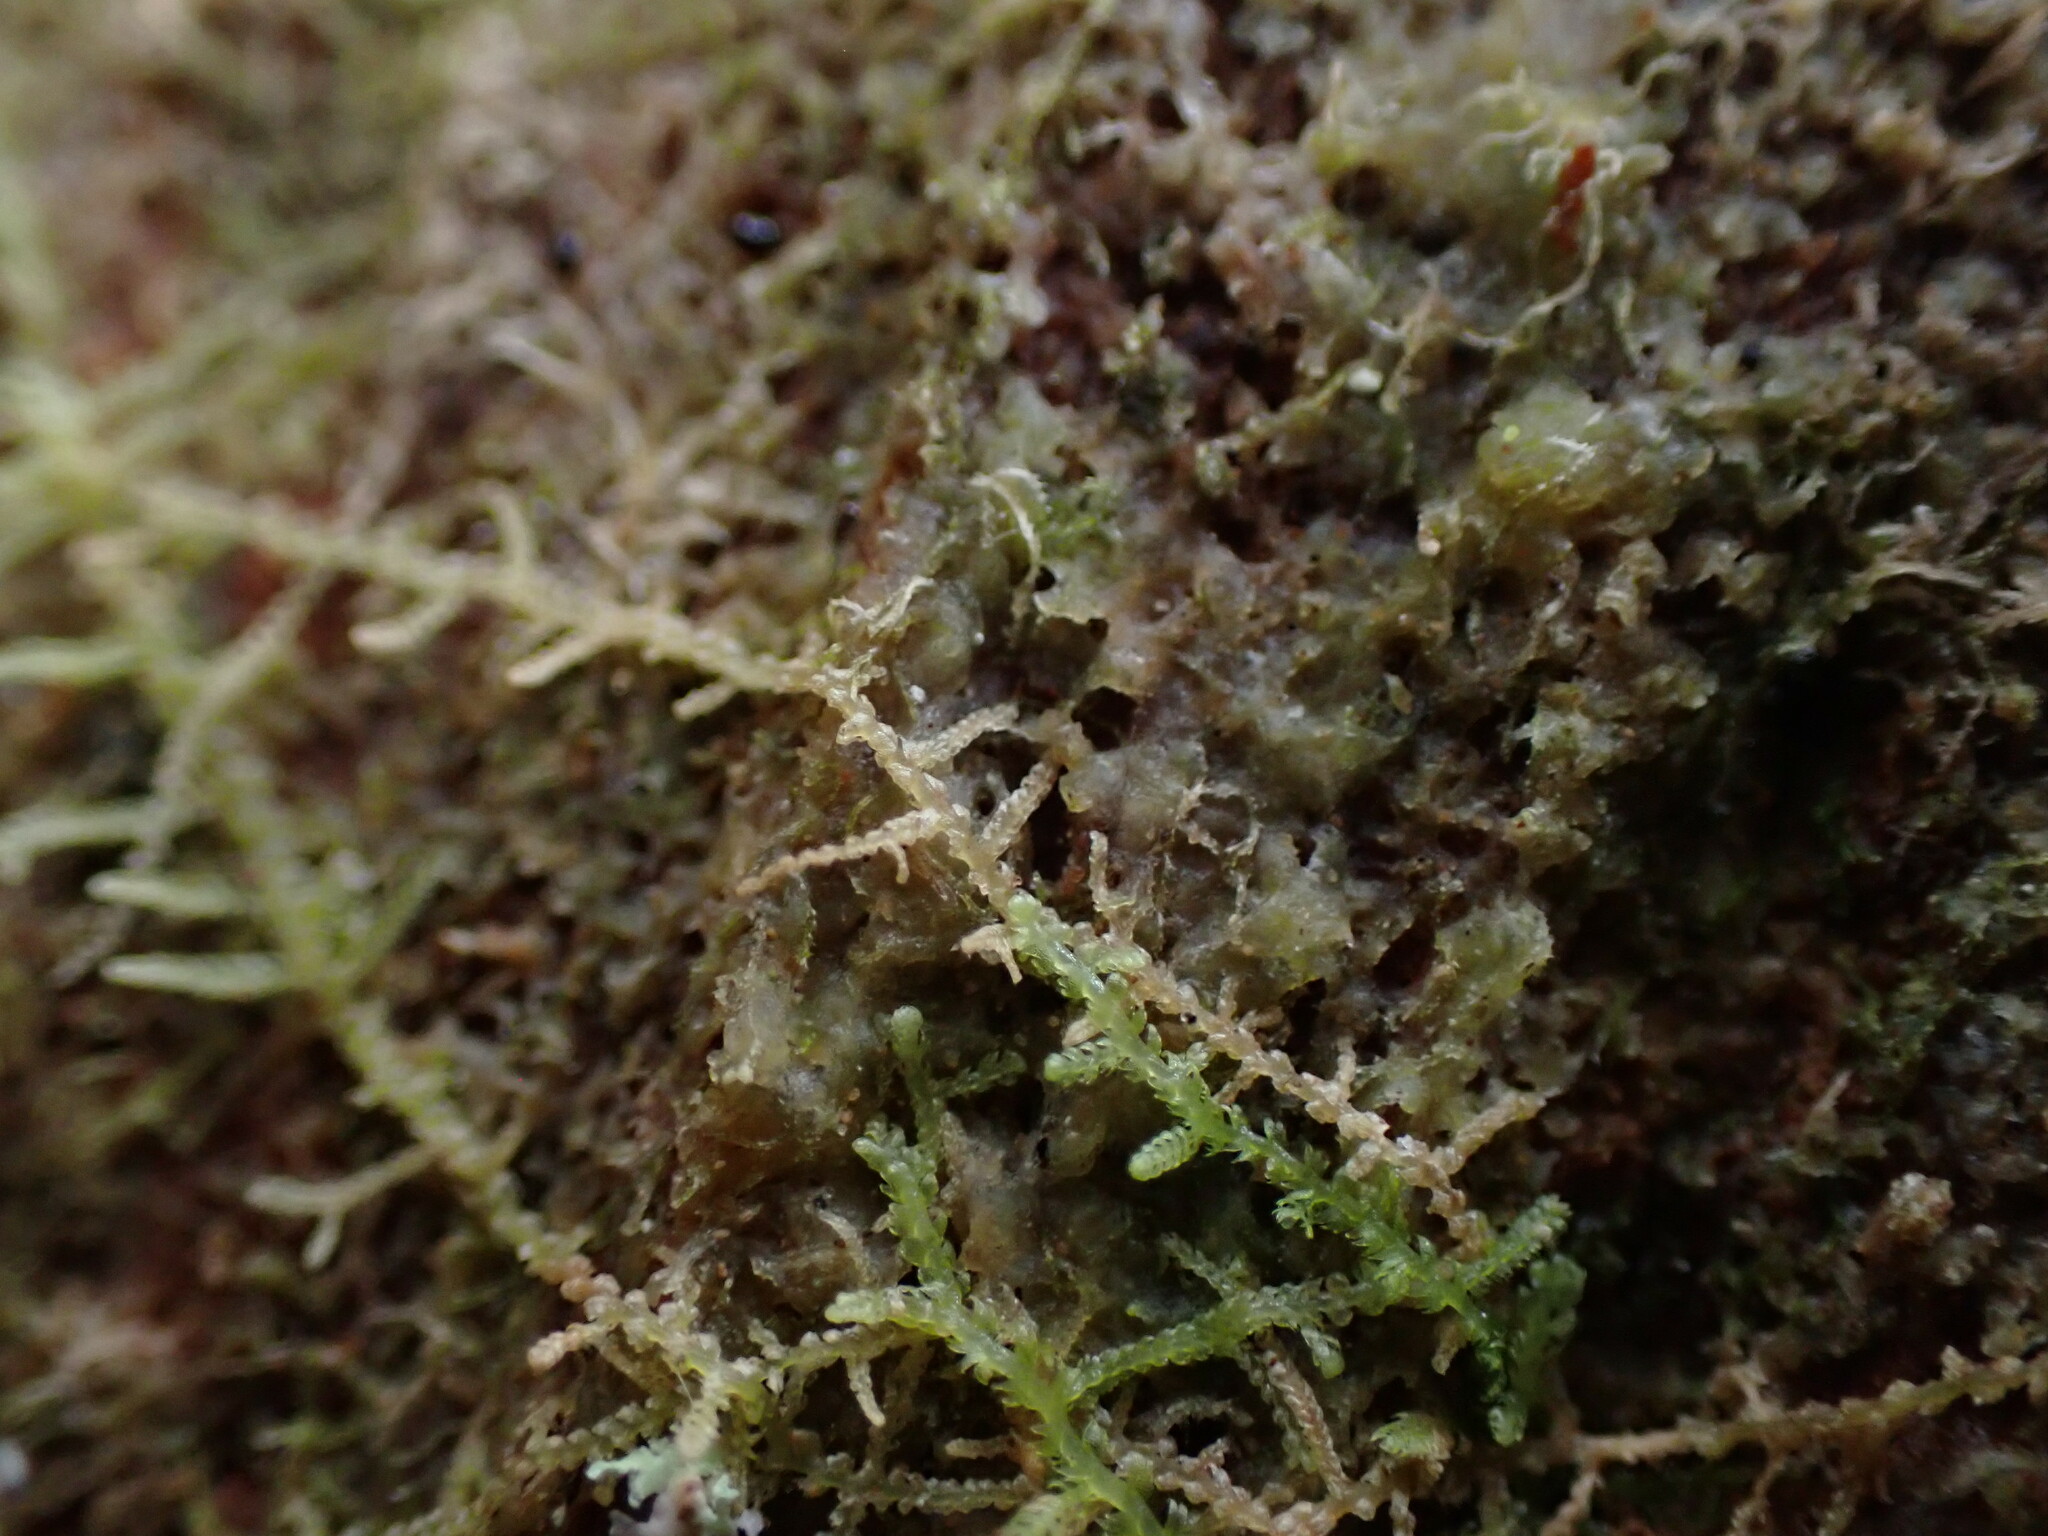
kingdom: Plantae
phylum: Marchantiophyta
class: Jungermanniopsida
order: Jungermanniales
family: Lepidoziaceae
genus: Lepidozia
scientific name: Lepidozia reptans
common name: Creeping fingerwort
